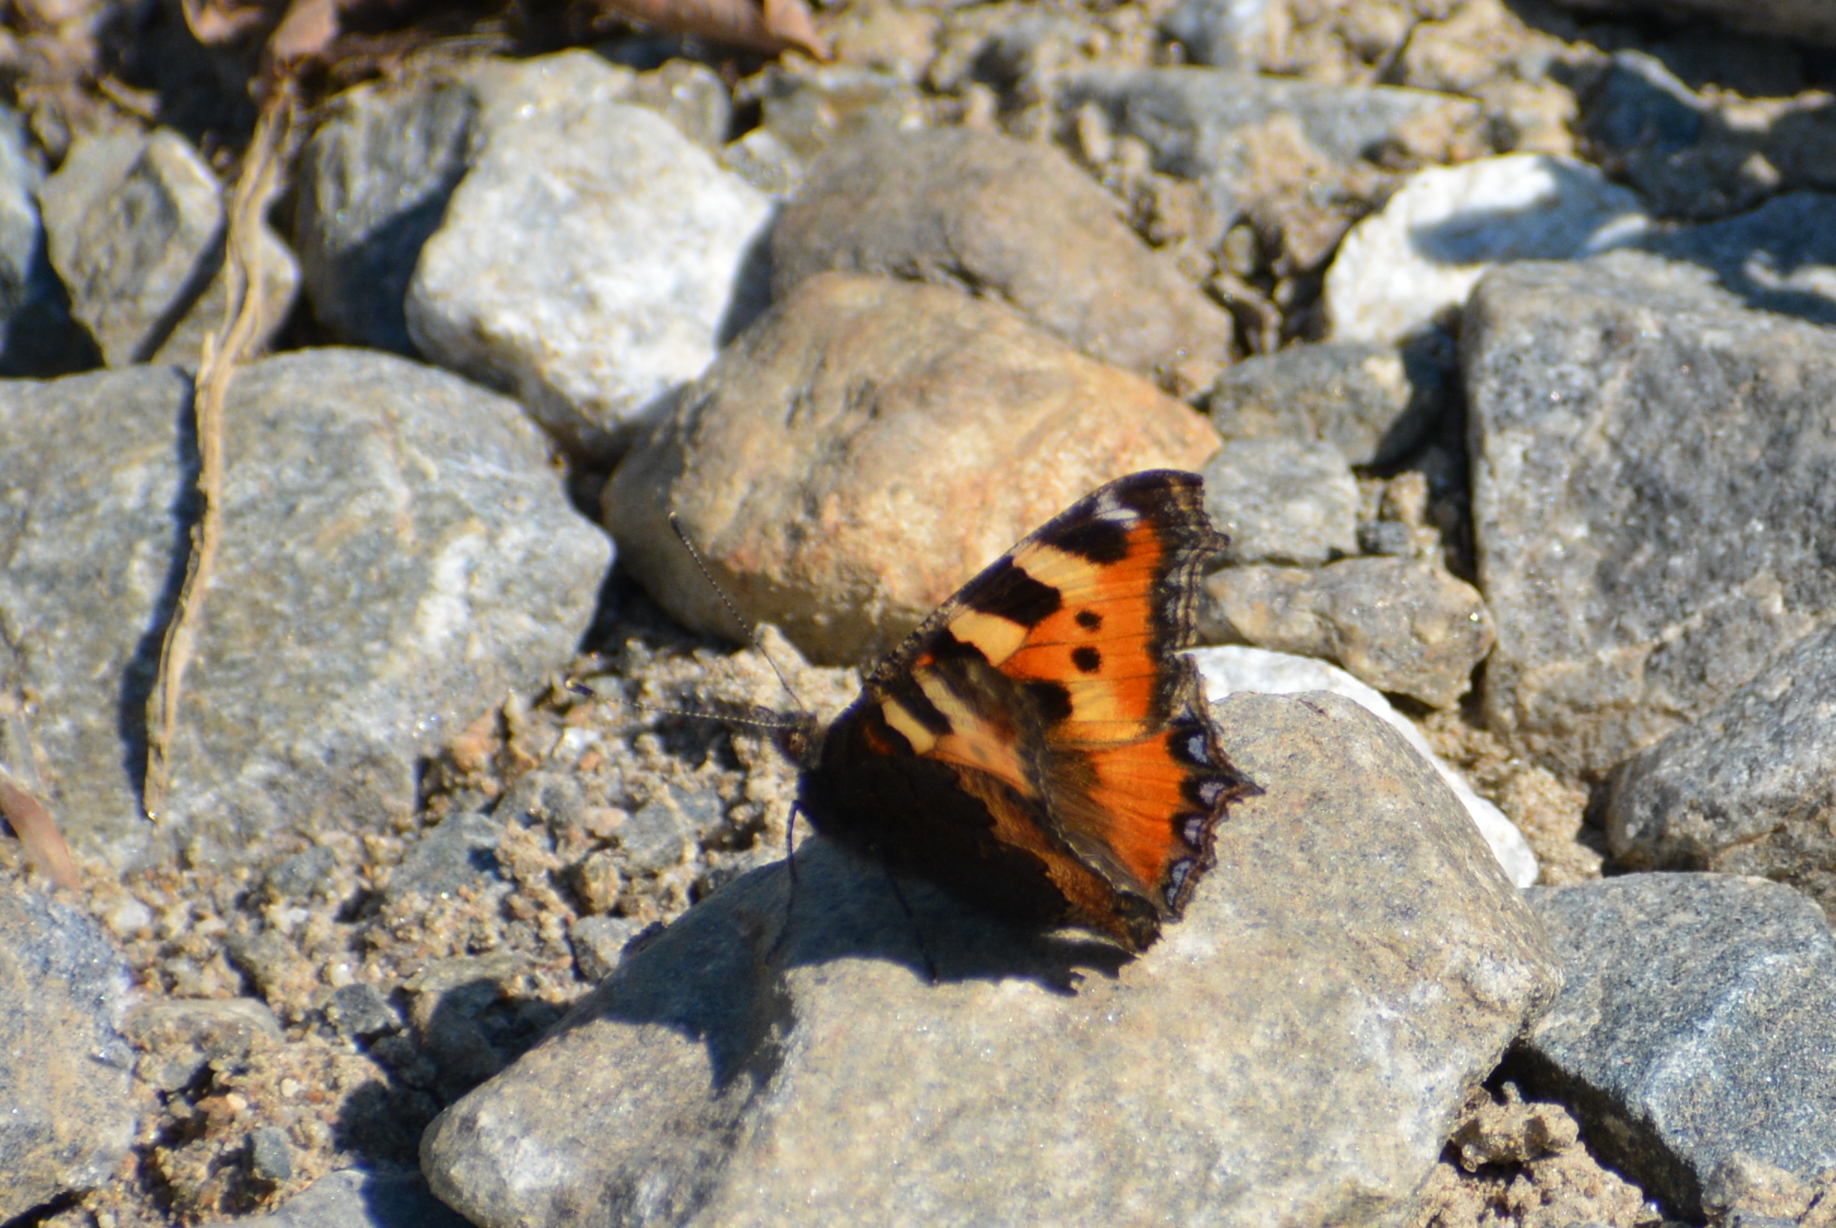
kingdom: Animalia
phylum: Arthropoda
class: Insecta
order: Lepidoptera
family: Nymphalidae
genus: Aglais
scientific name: Aglais urticae
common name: Small tortoiseshell
